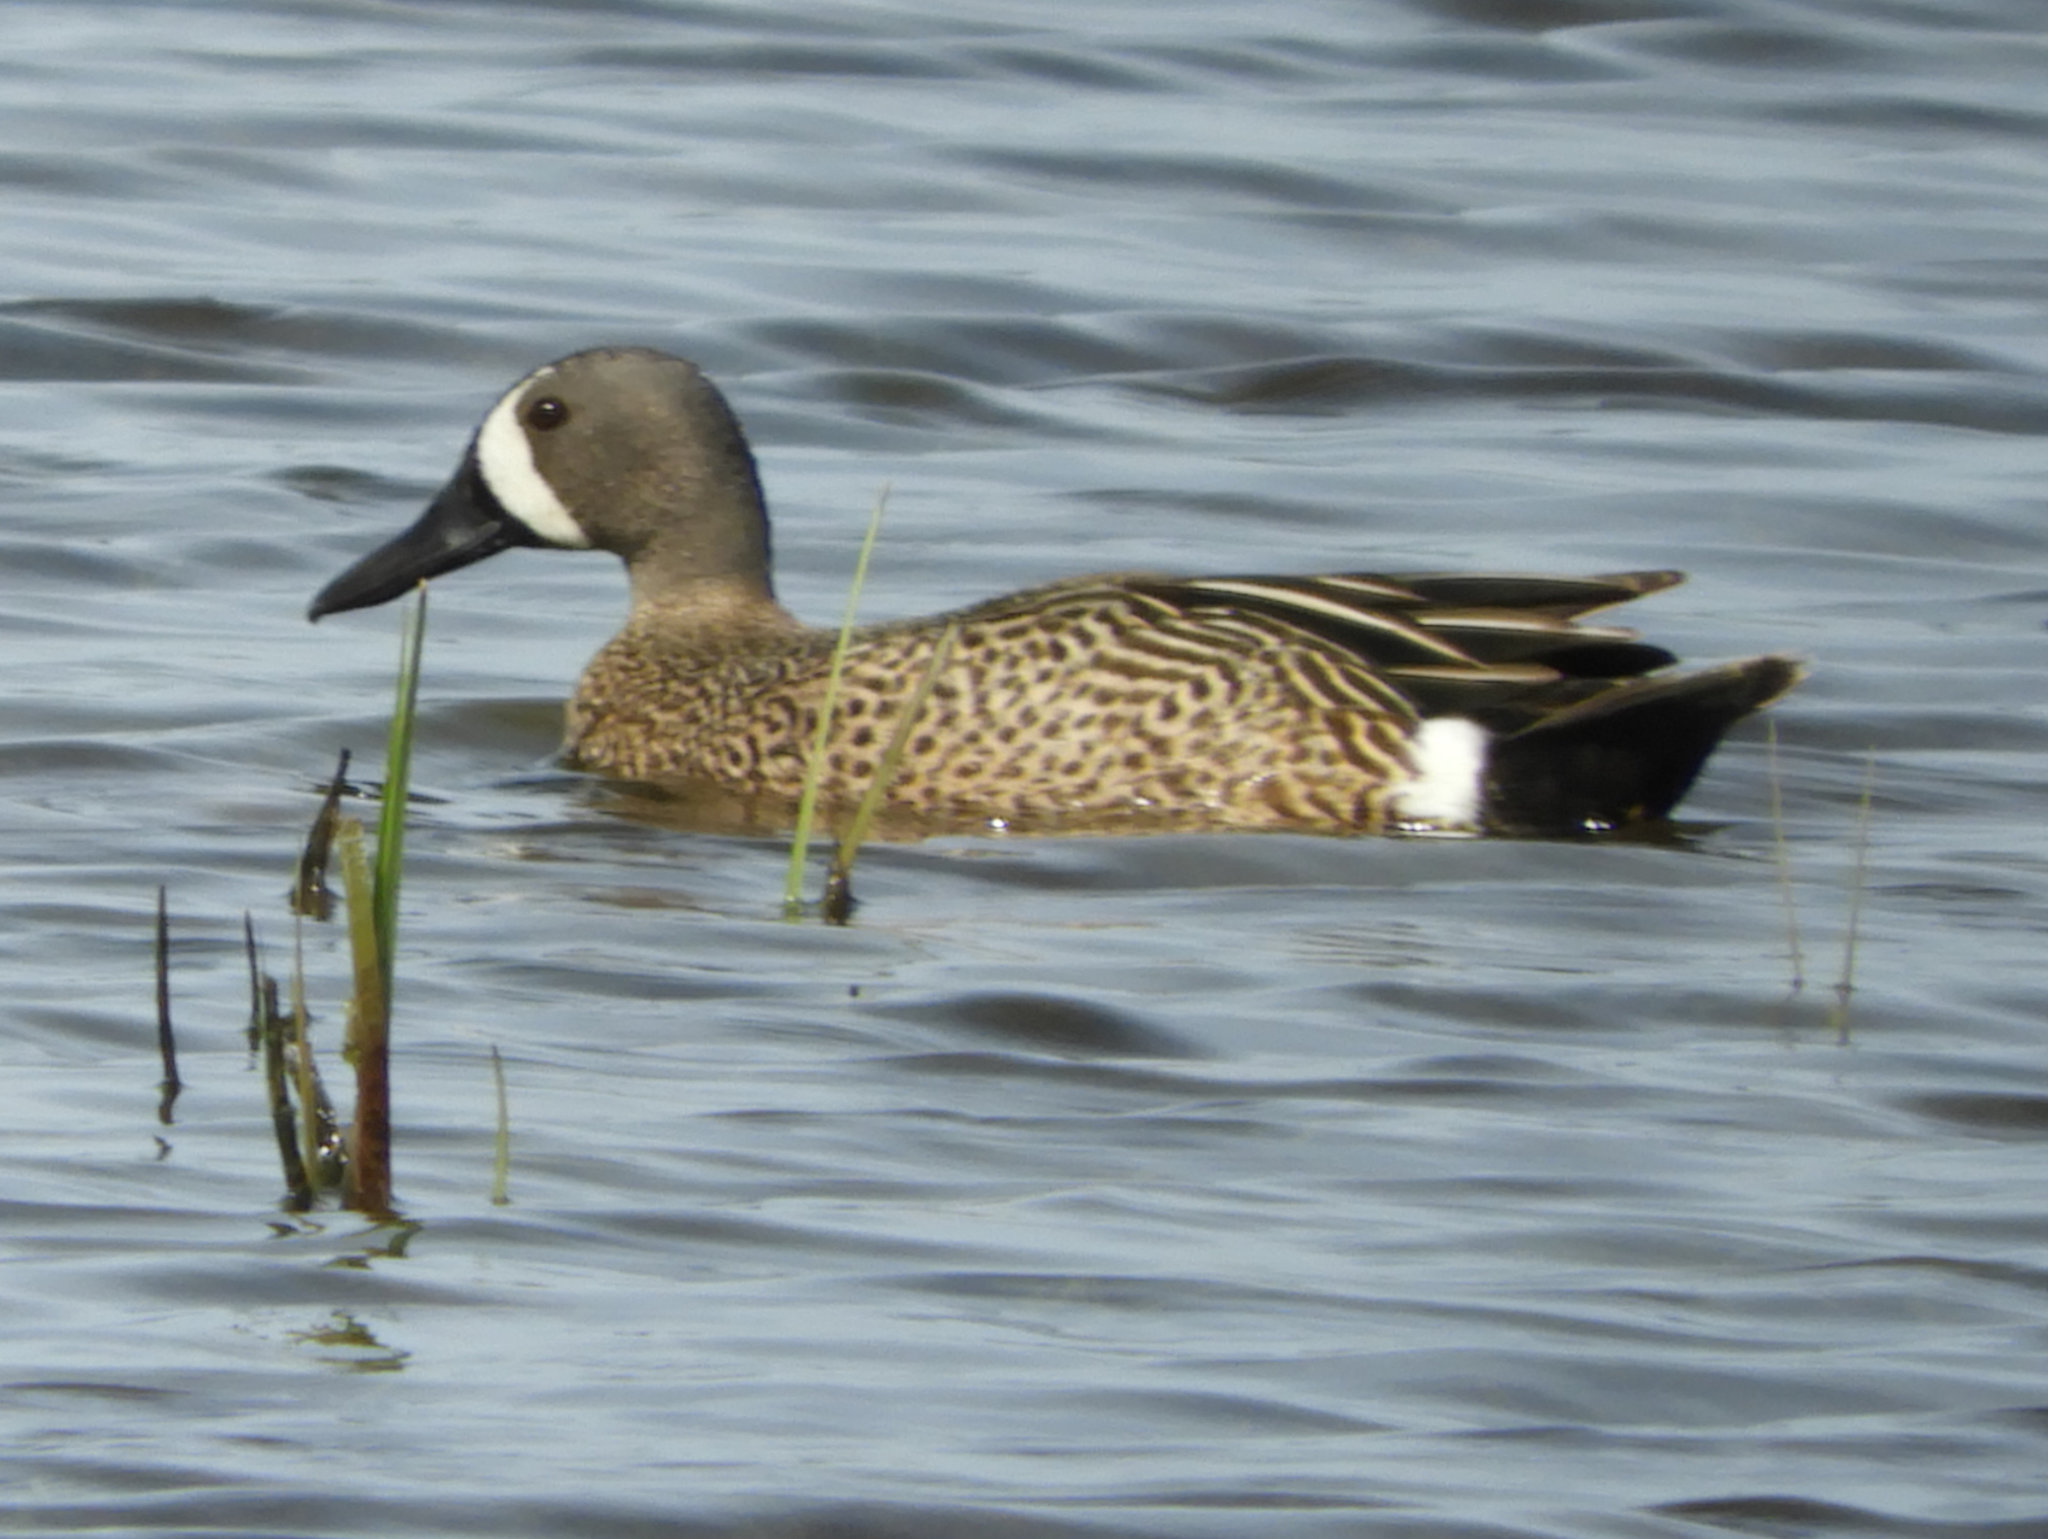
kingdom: Animalia
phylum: Chordata
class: Aves
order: Anseriformes
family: Anatidae
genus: Spatula
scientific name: Spatula discors
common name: Blue-winged teal
